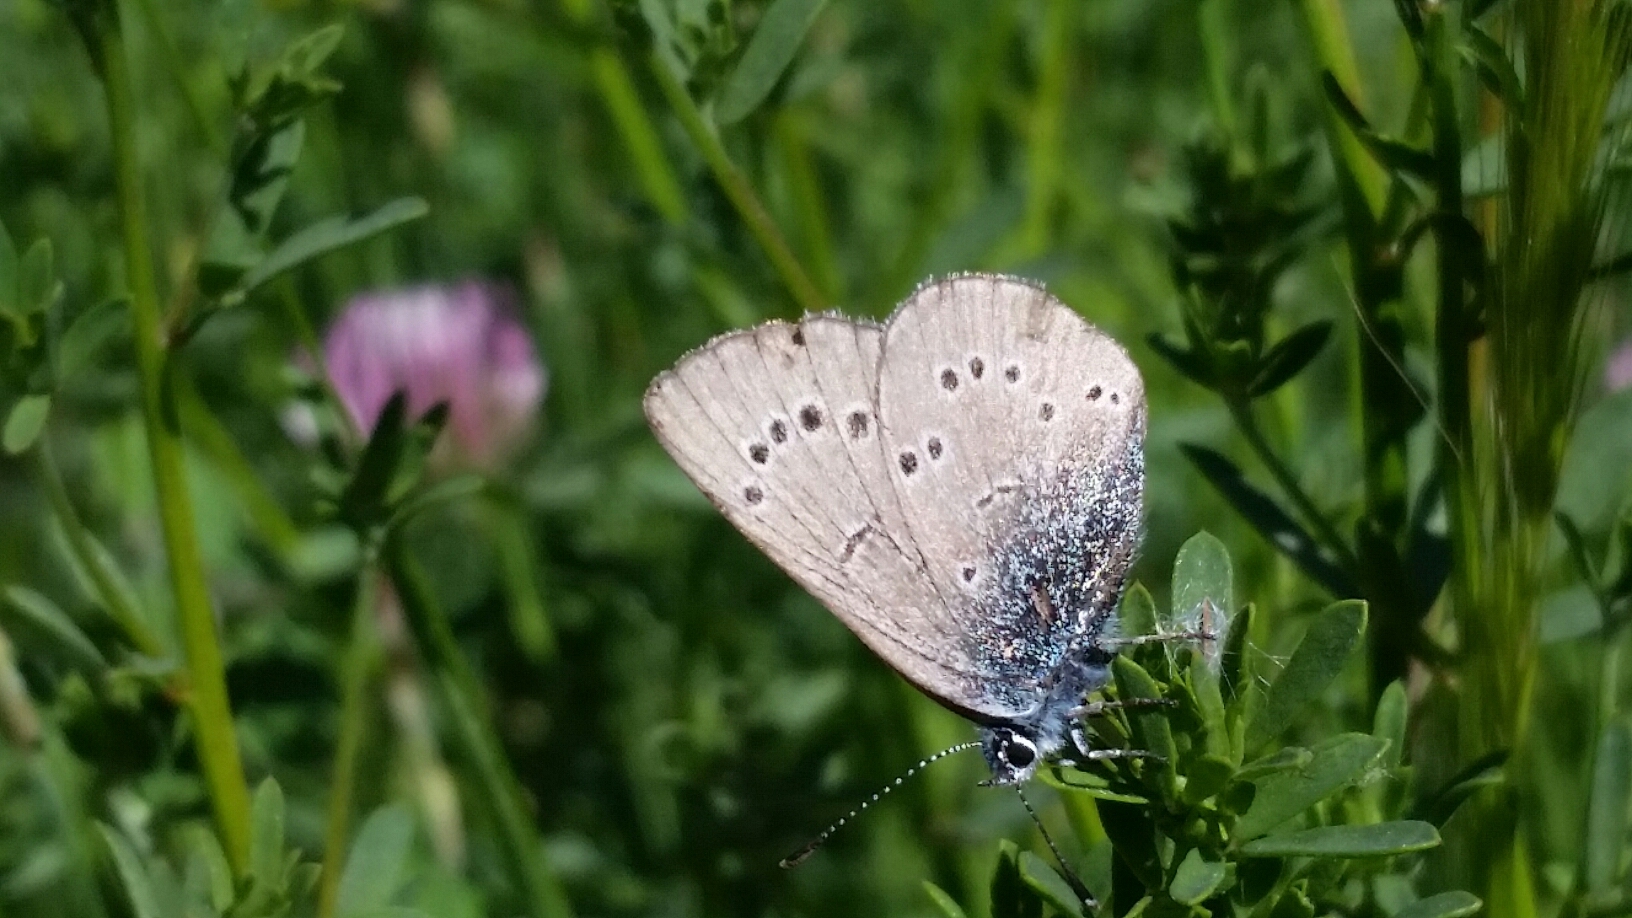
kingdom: Animalia
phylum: Arthropoda
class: Insecta
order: Lepidoptera
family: Lycaenidae
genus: Glaucopsyche
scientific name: Glaucopsyche lygdamus
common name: Silvery blue
